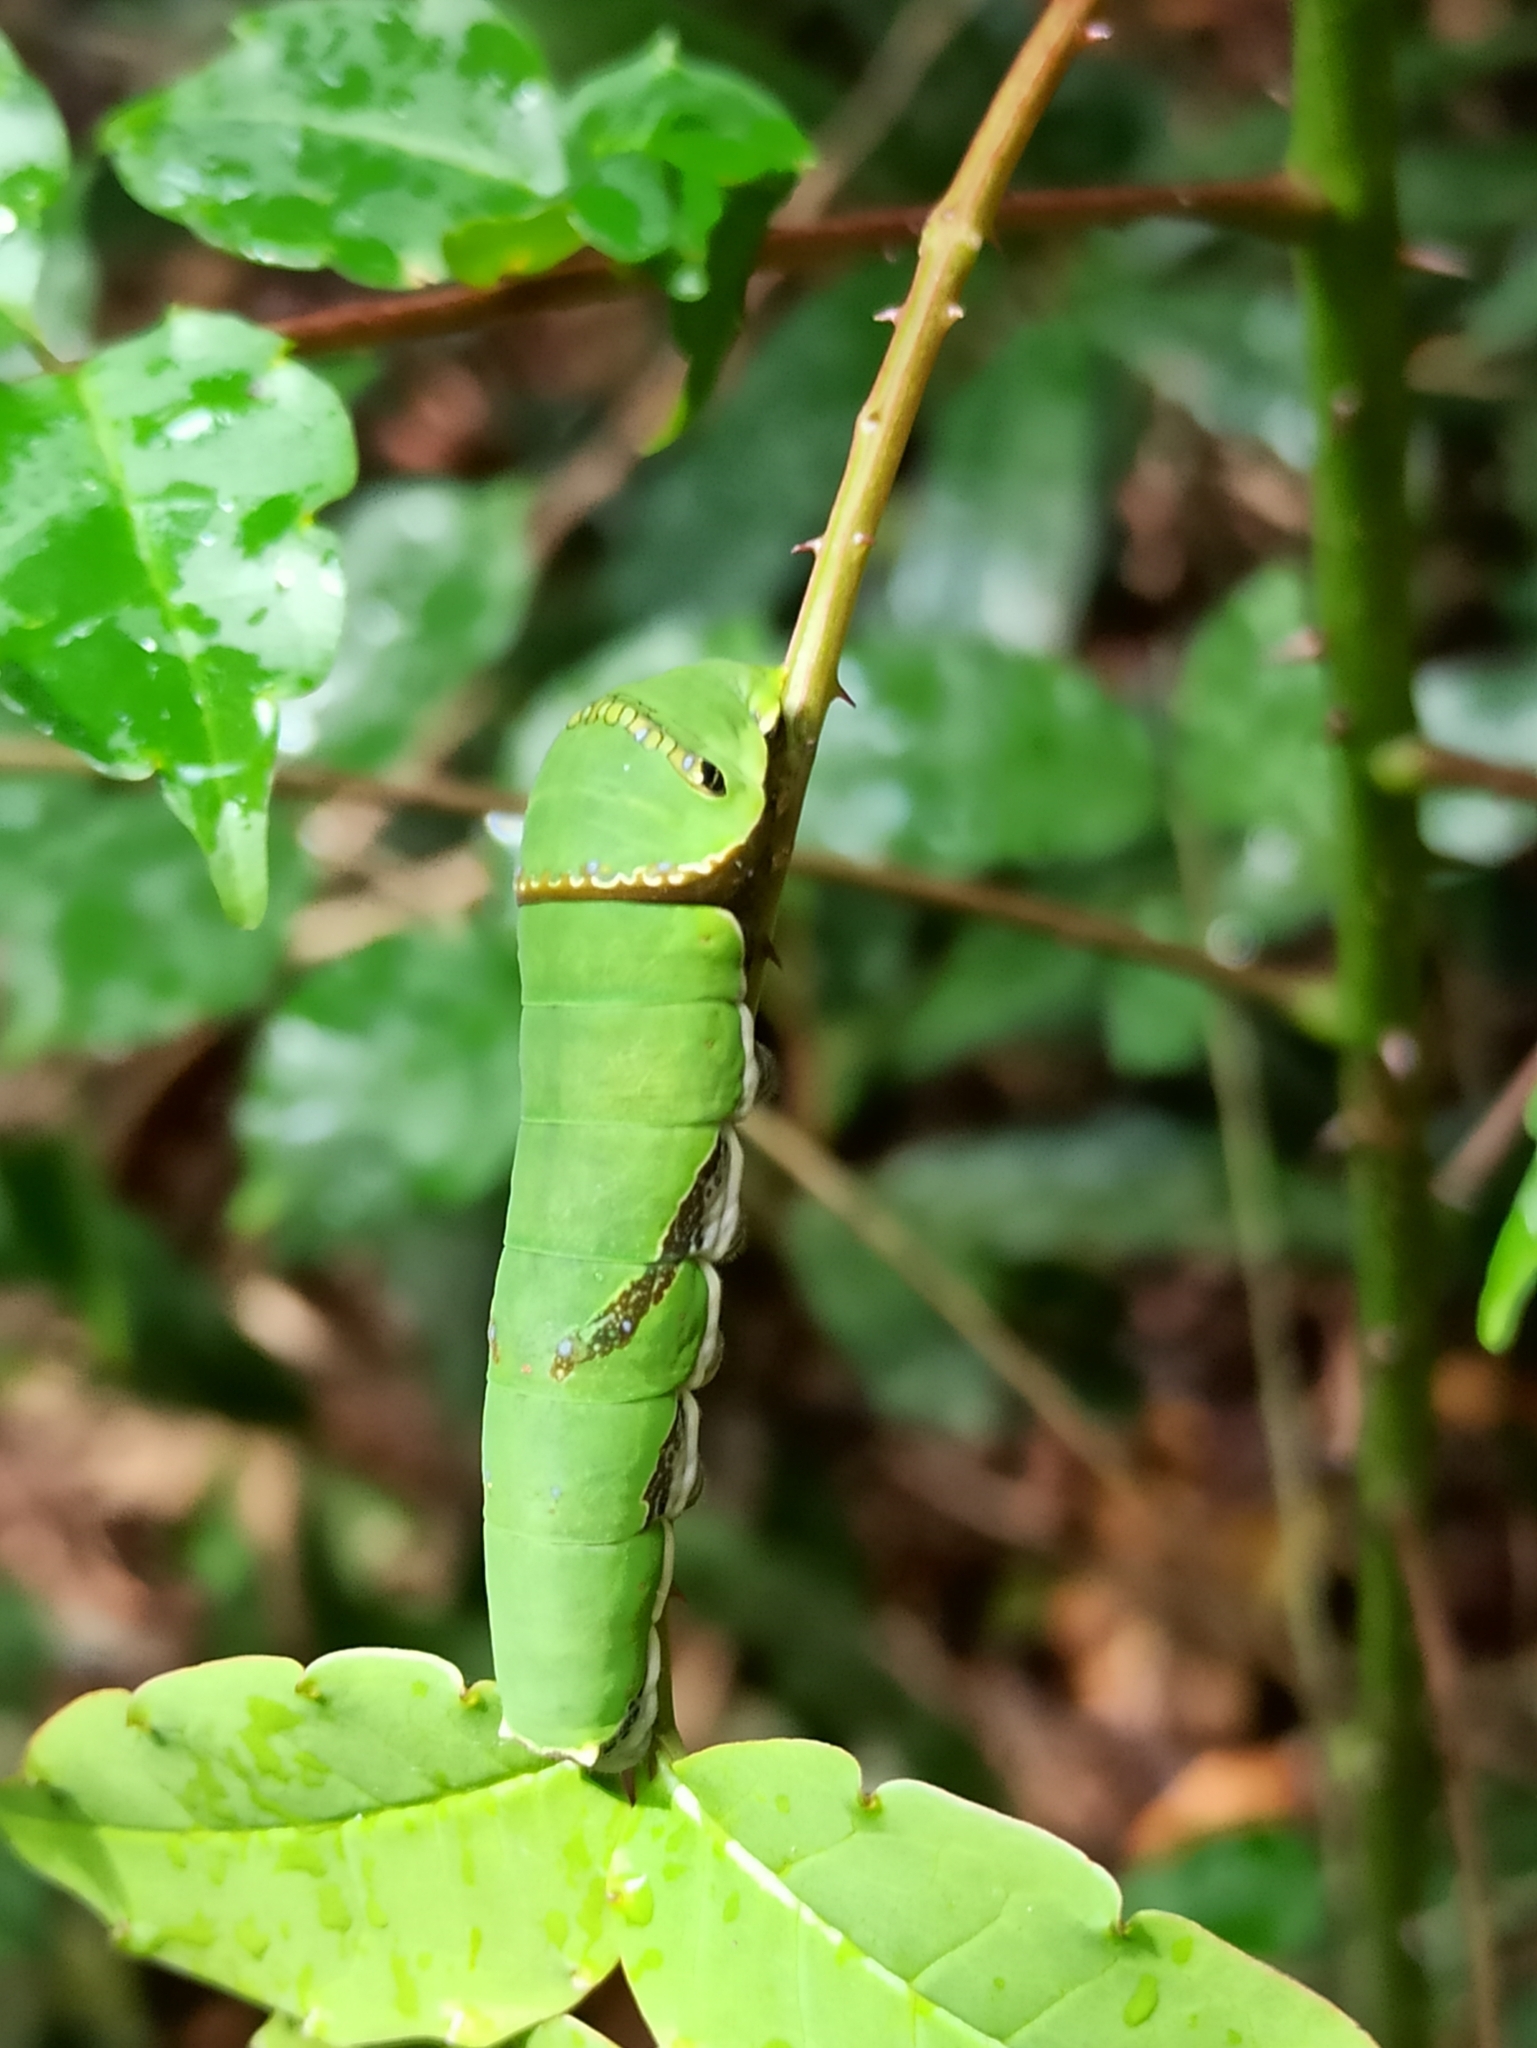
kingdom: Animalia
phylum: Arthropoda
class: Insecta
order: Lepidoptera
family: Papilionidae
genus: Papilio
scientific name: Papilio polytes
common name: Common mormon
